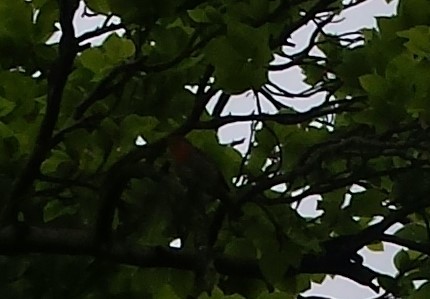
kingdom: Animalia
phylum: Chordata
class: Aves
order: Passeriformes
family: Muscicapidae
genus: Erithacus
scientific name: Erithacus rubecula
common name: European robin
